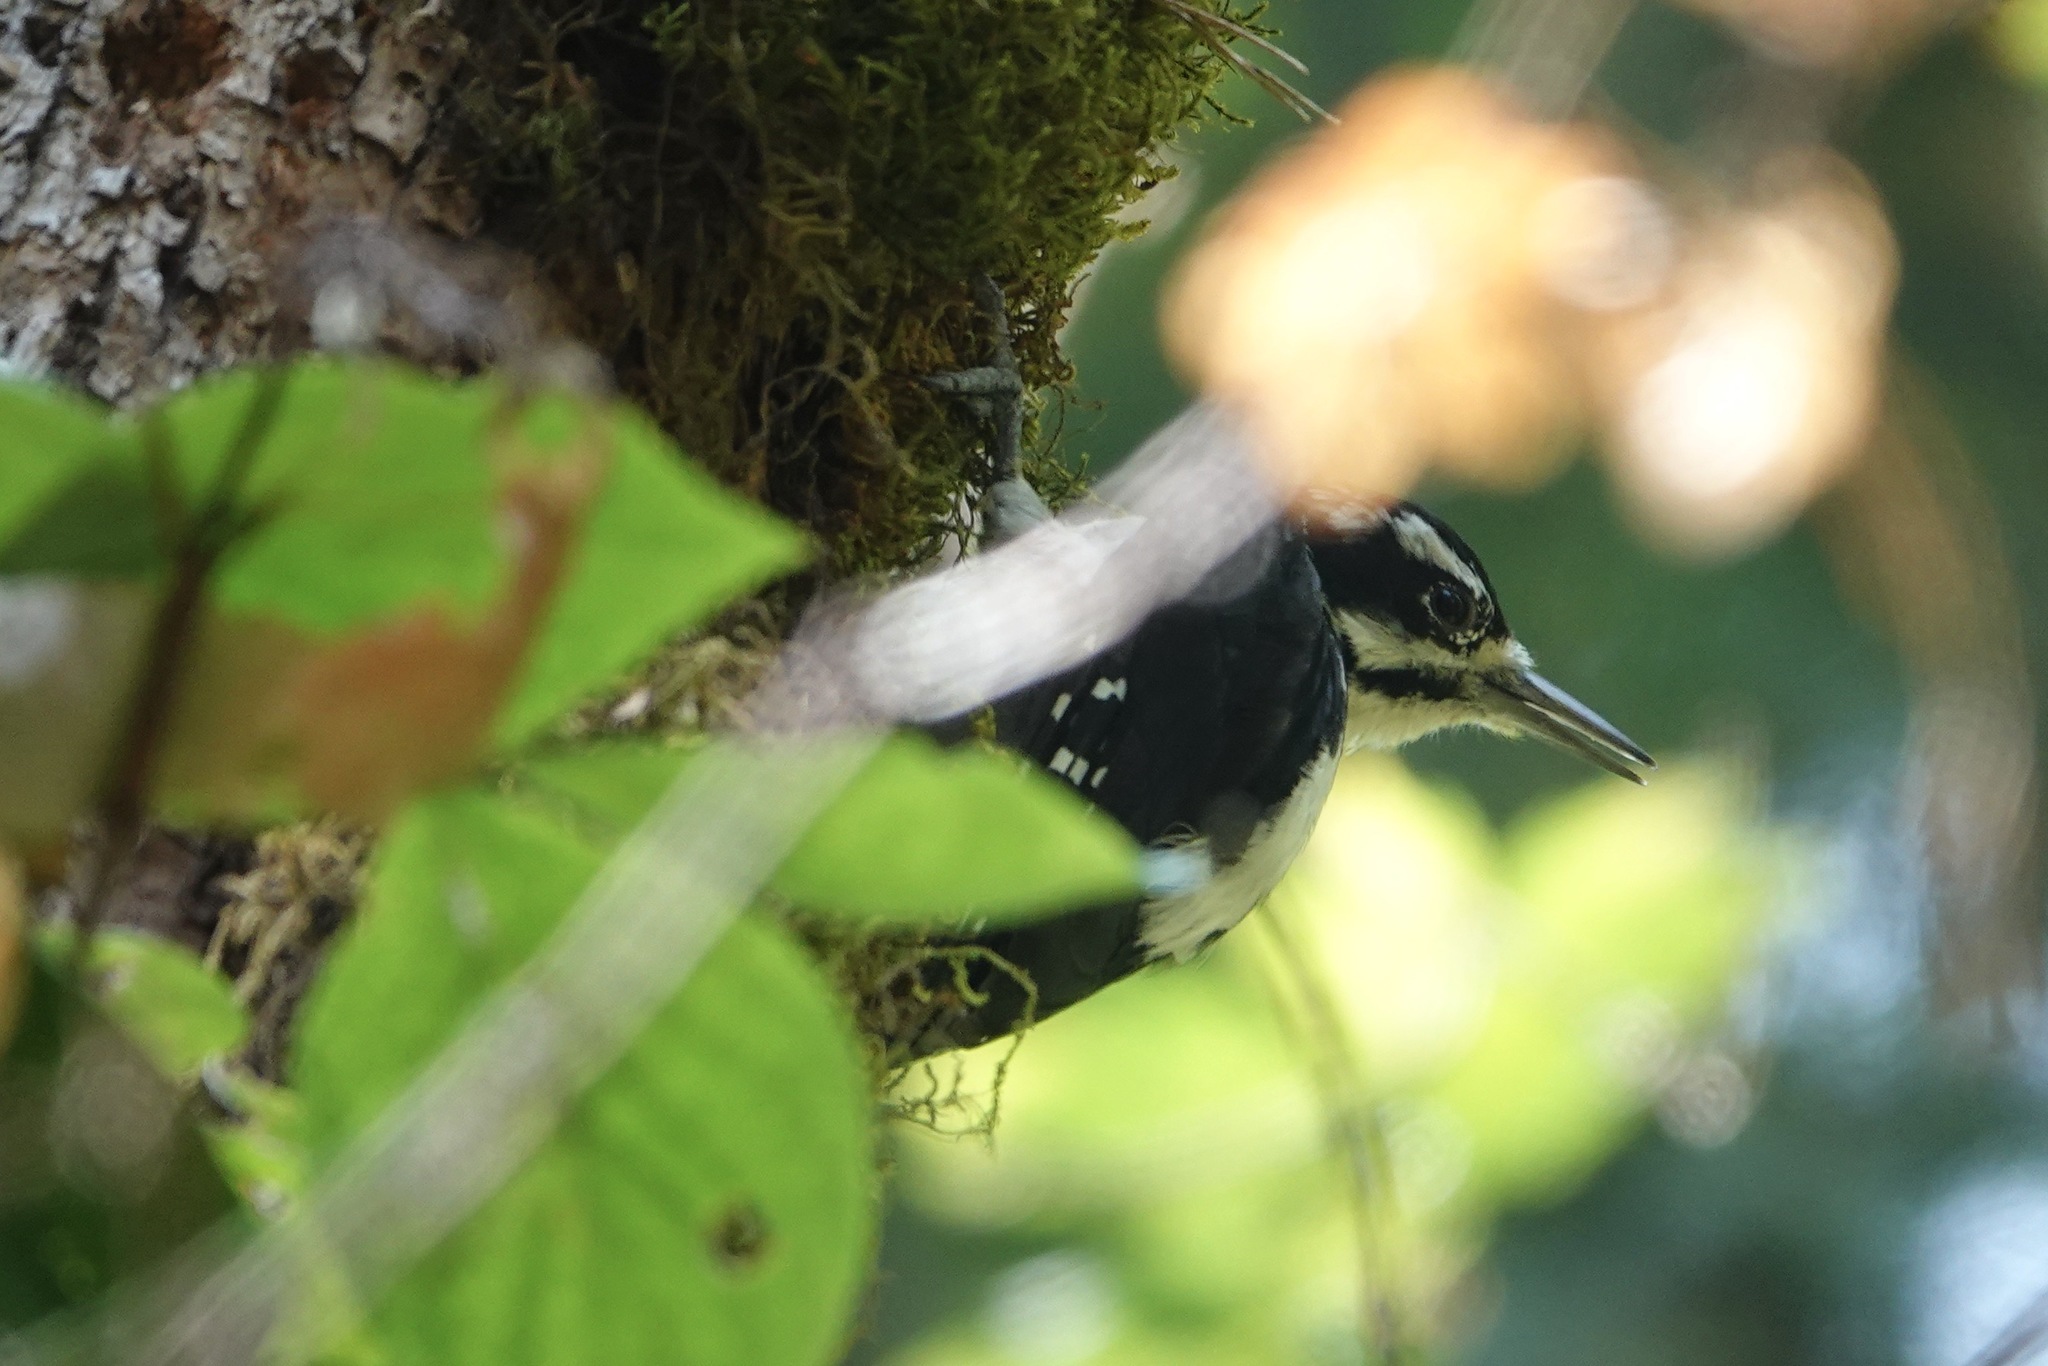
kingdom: Animalia
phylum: Chordata
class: Aves
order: Piciformes
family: Picidae
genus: Leuconotopicus
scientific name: Leuconotopicus villosus
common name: Hairy woodpecker
